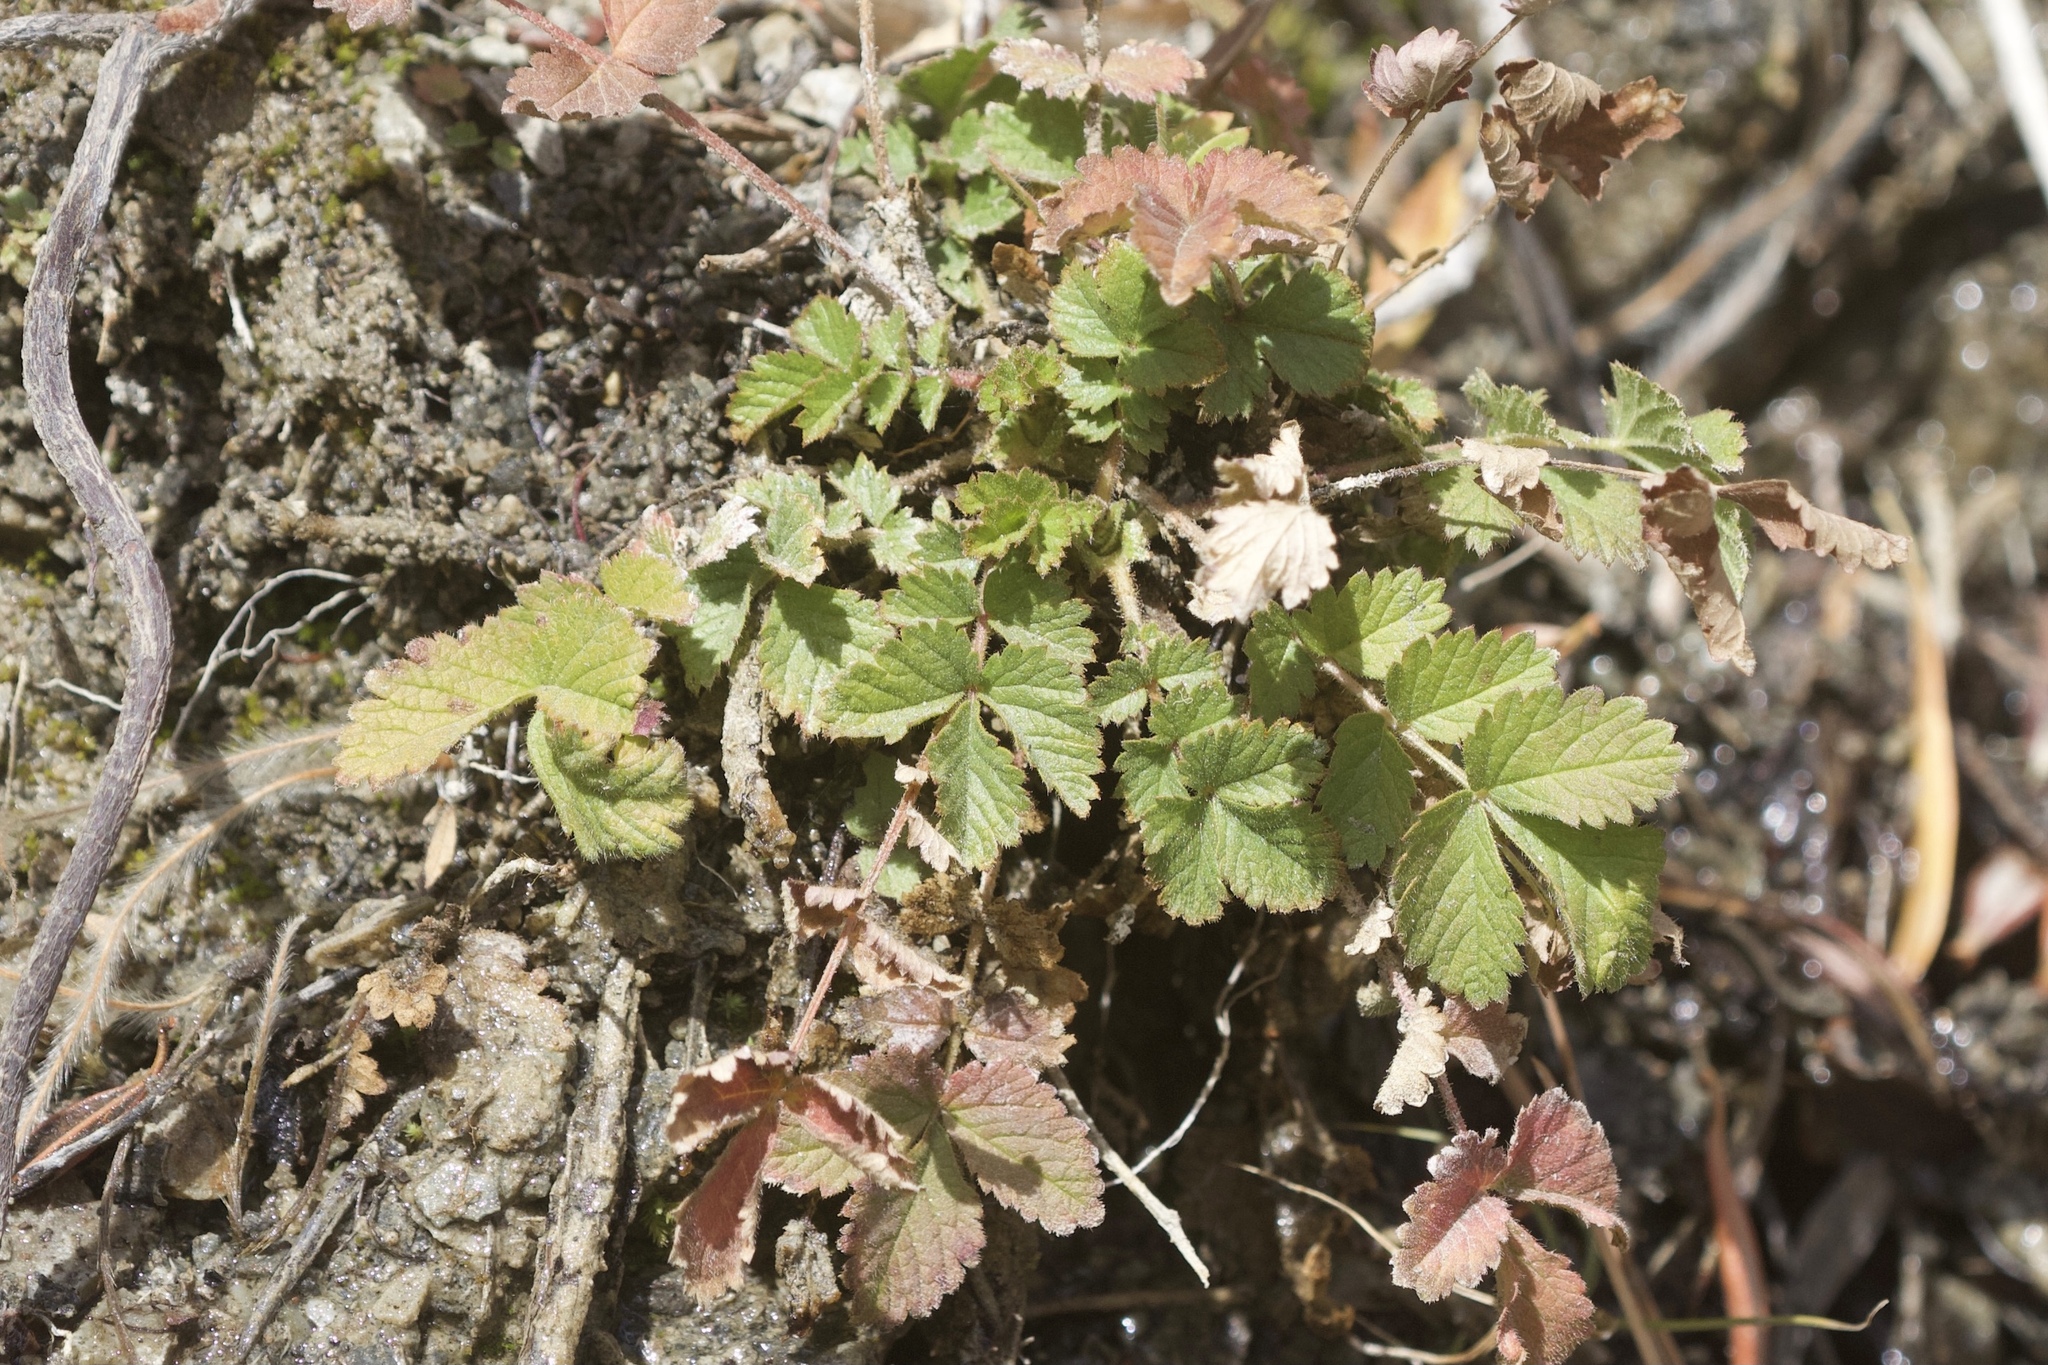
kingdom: Plantae
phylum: Tracheophyta
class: Magnoliopsida
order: Rosales
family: Rosaceae
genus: Drymocallis
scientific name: Drymocallis glandulosa
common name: Sticky cinquefoil
